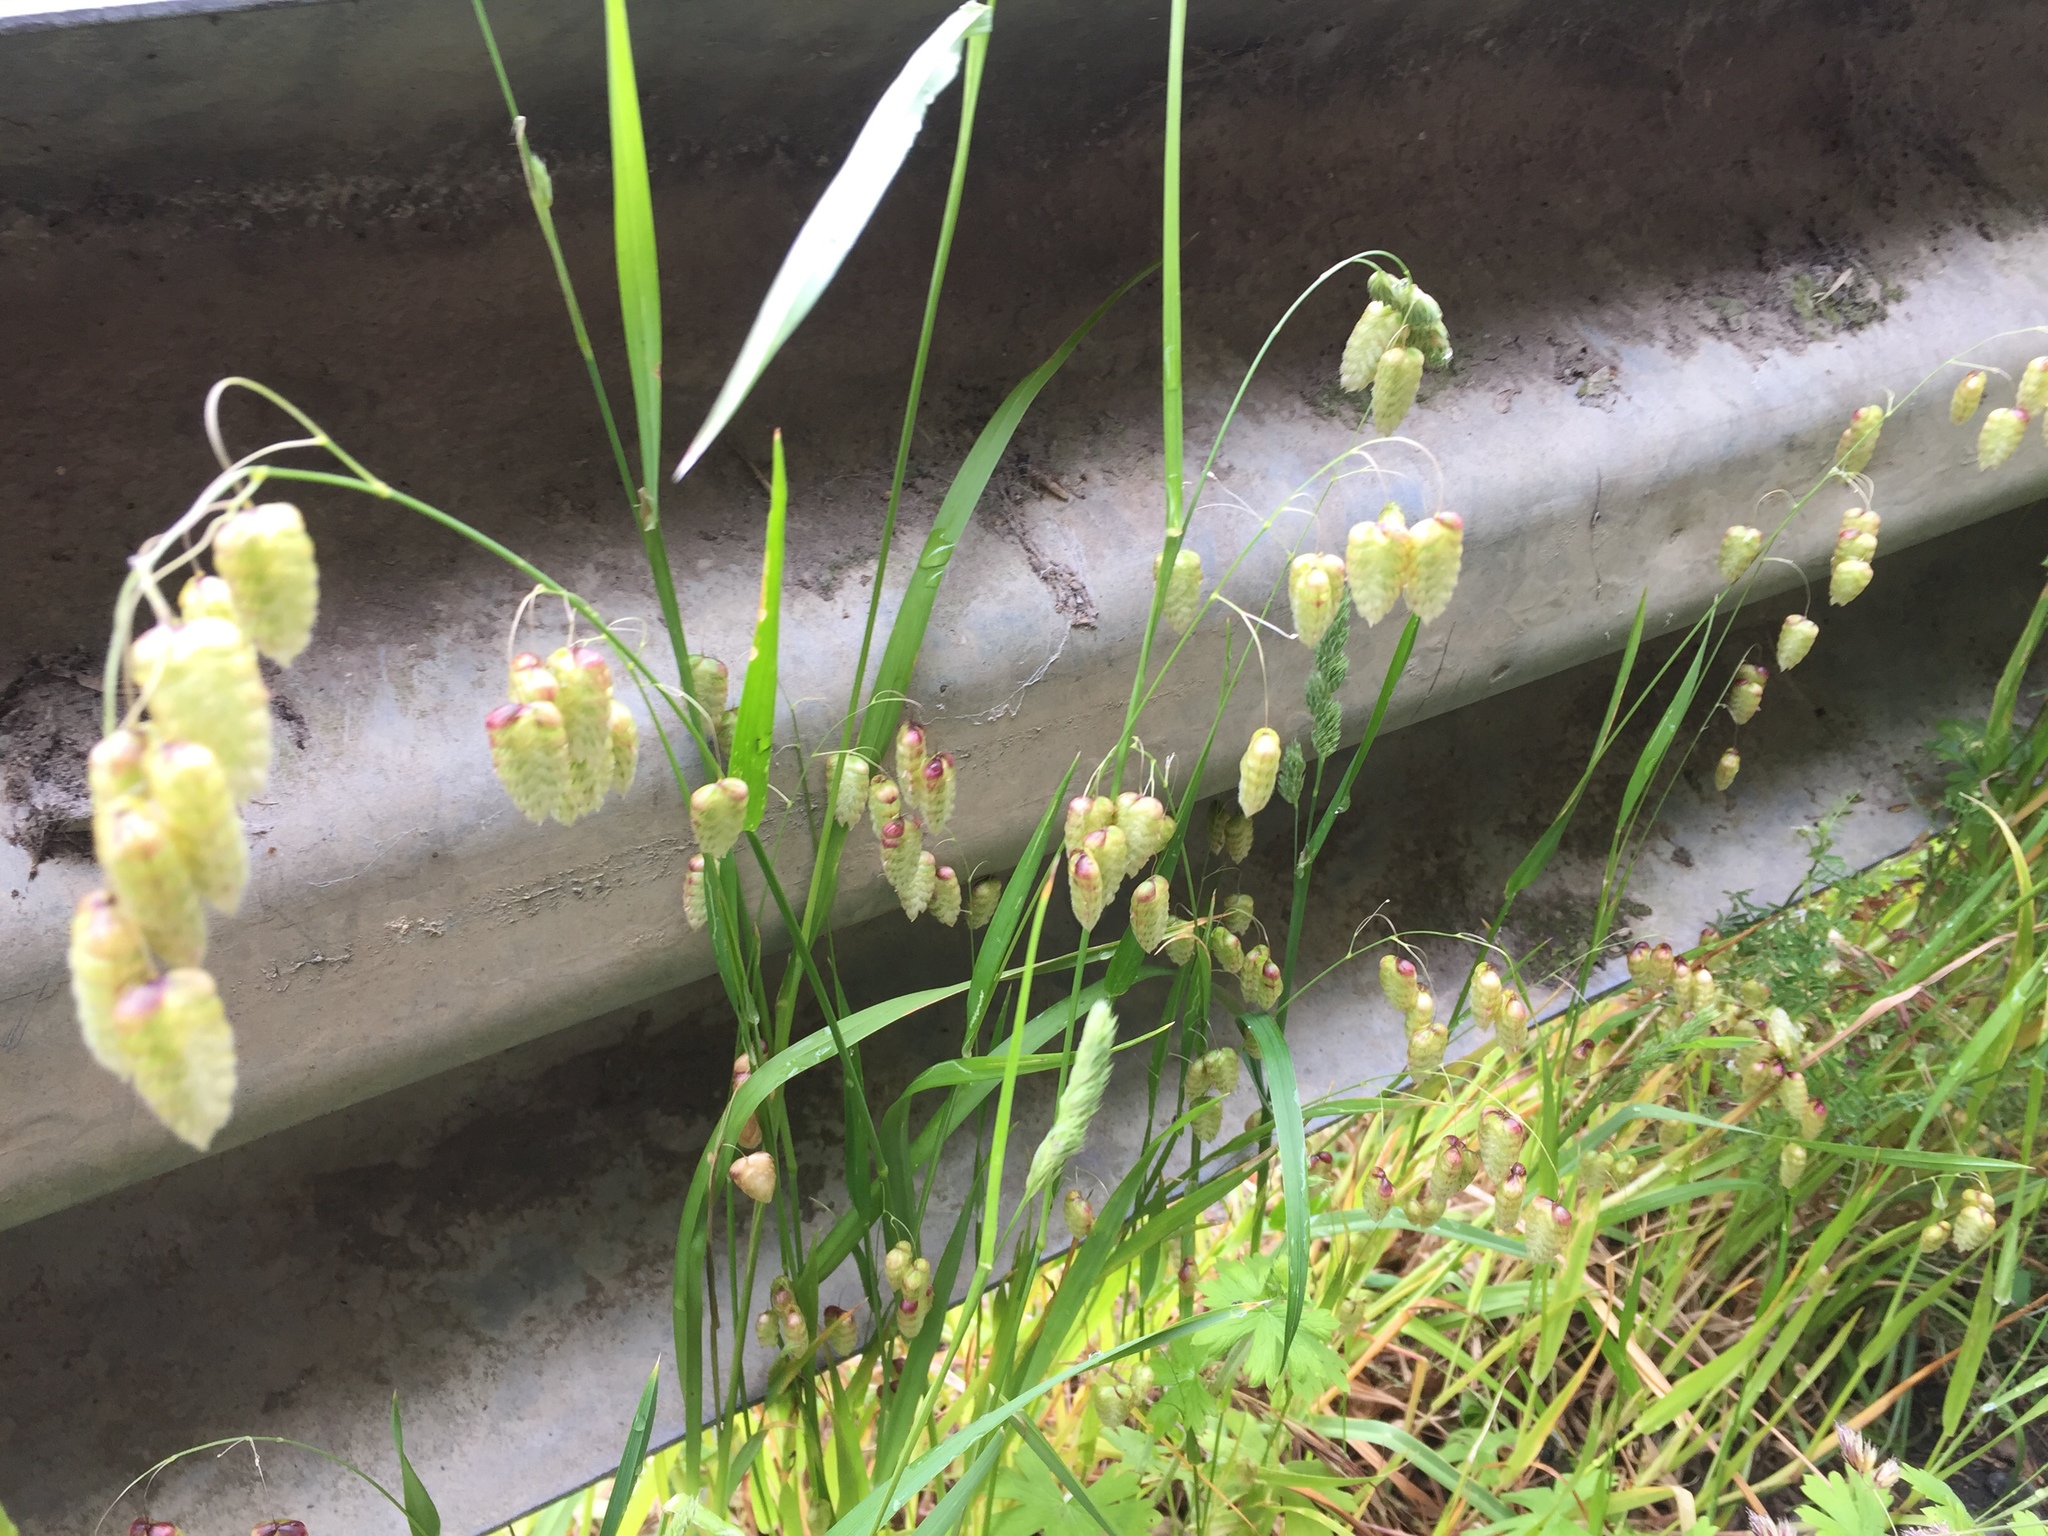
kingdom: Plantae
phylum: Tracheophyta
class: Liliopsida
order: Poales
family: Poaceae
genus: Briza
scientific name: Briza maxima
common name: Big quakinggrass
